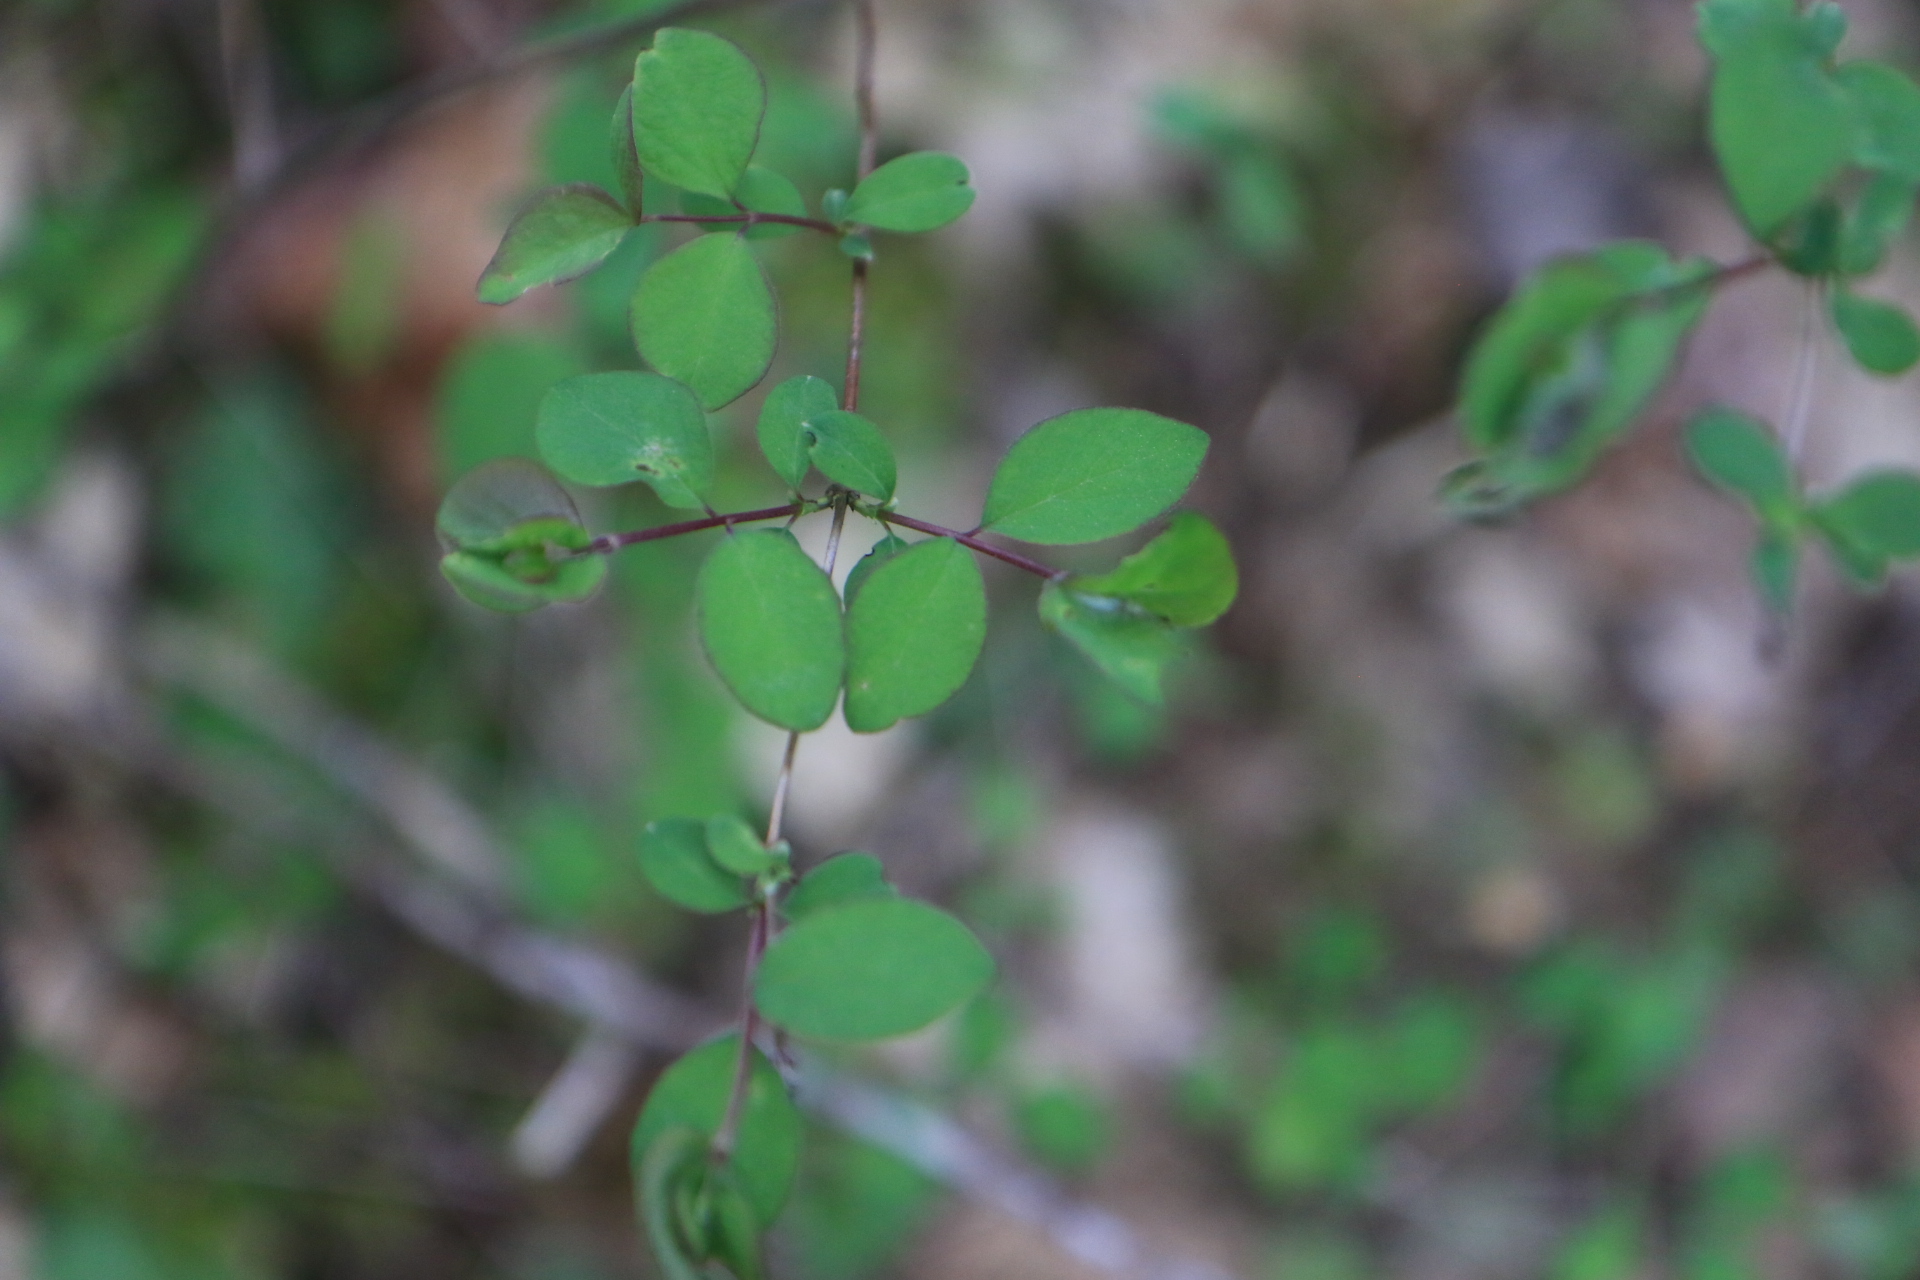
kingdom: Plantae
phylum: Tracheophyta
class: Magnoliopsida
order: Dipsacales
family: Caprifoliaceae
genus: Symphoricarpos
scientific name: Symphoricarpos albus
